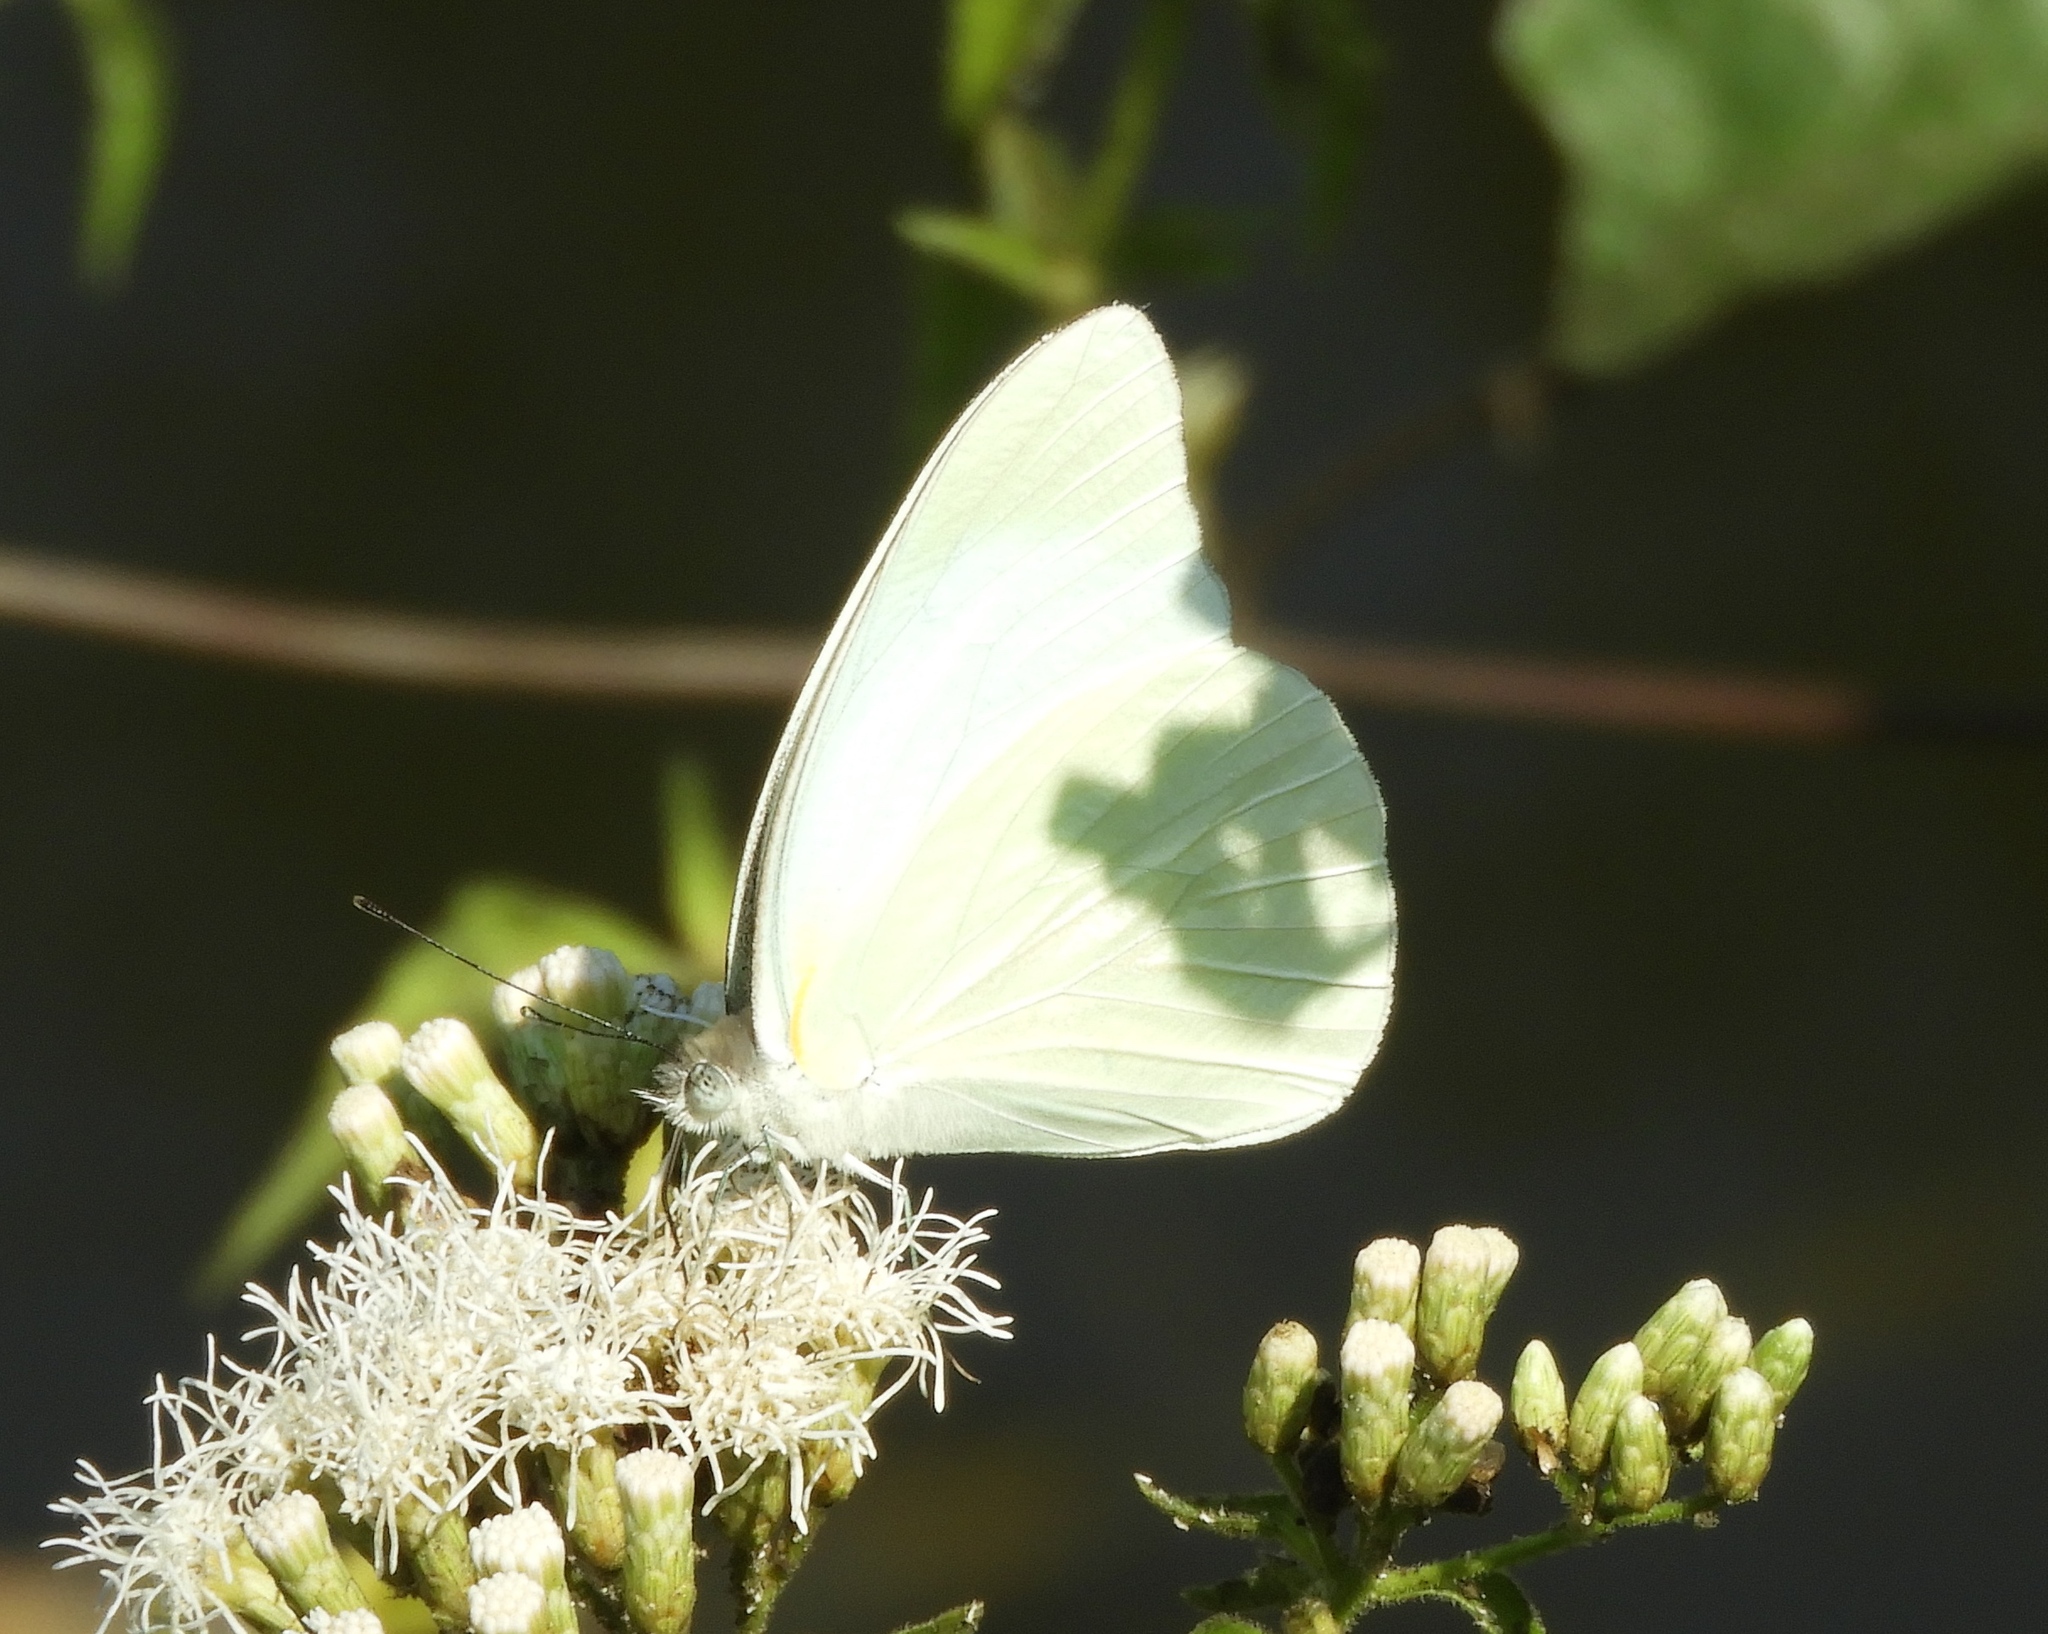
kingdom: Animalia
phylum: Arthropoda
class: Insecta
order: Lepidoptera
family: Pieridae
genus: Glutophrissa
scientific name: Glutophrissa drusilla
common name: Florida white
